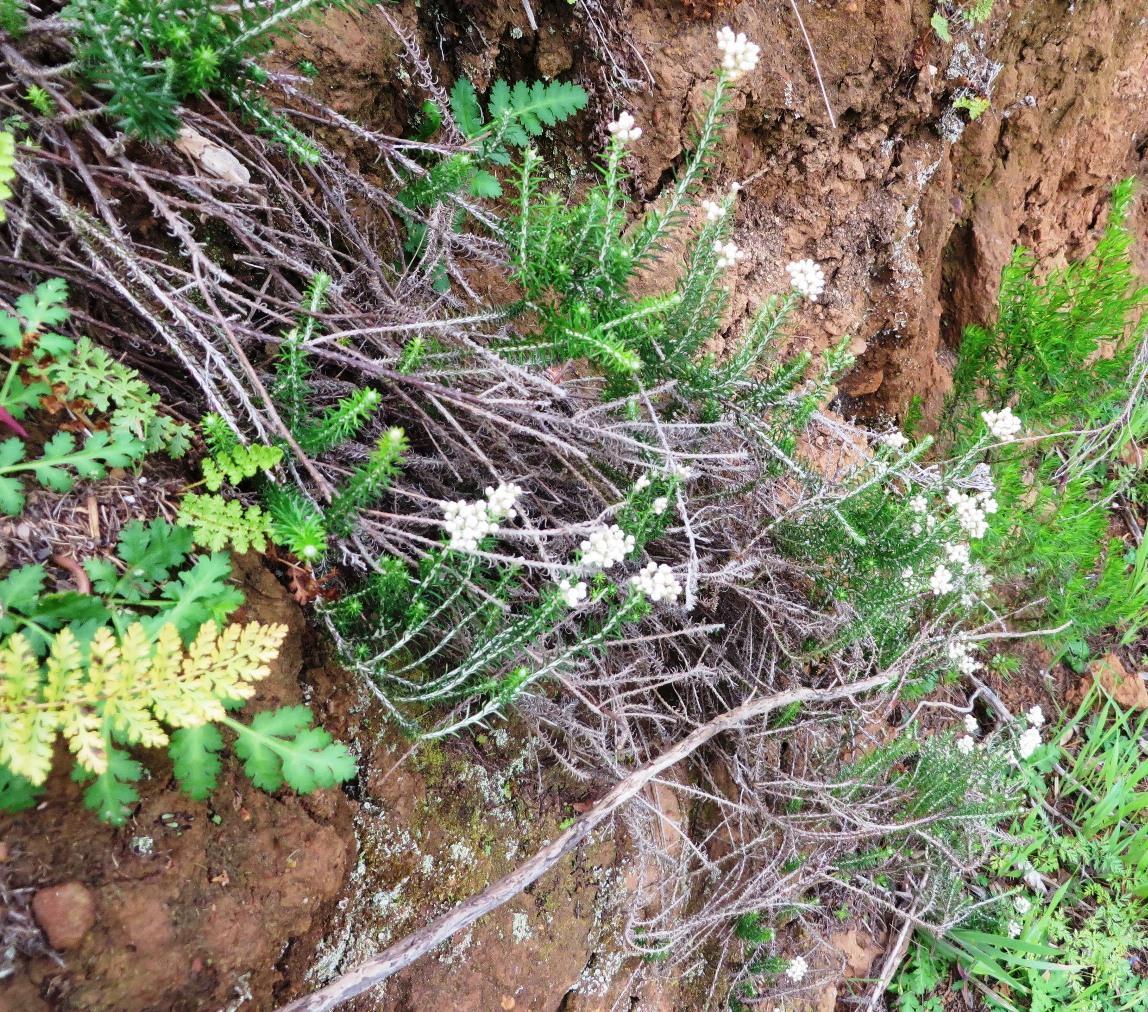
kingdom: Plantae
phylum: Tracheophyta
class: Magnoliopsida
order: Asterales
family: Asteraceae
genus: Helichrysum
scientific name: Helichrysum teretifolium
